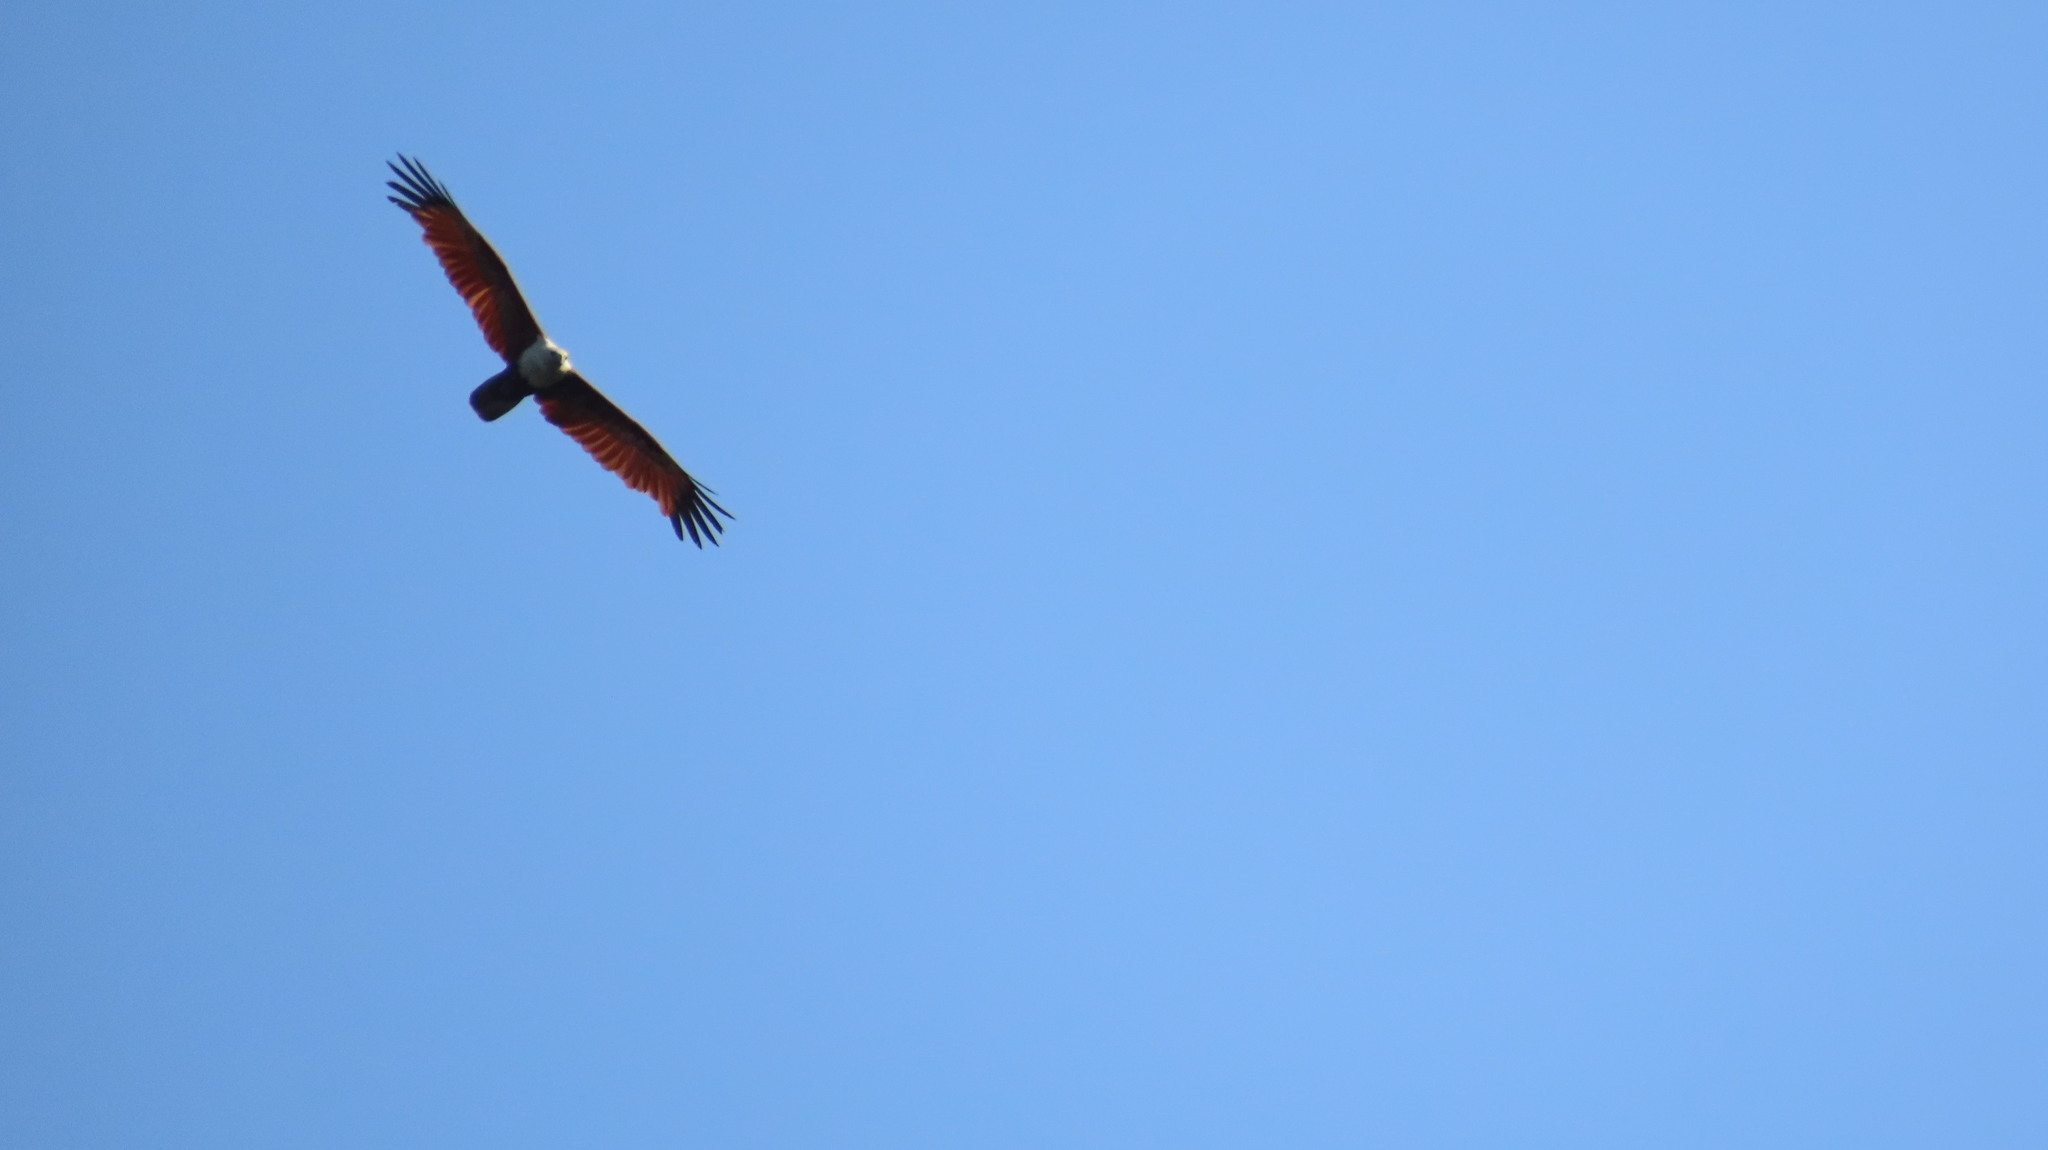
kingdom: Animalia
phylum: Chordata
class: Aves
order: Accipitriformes
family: Accipitridae
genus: Haliastur
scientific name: Haliastur indus
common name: Brahminy kite
